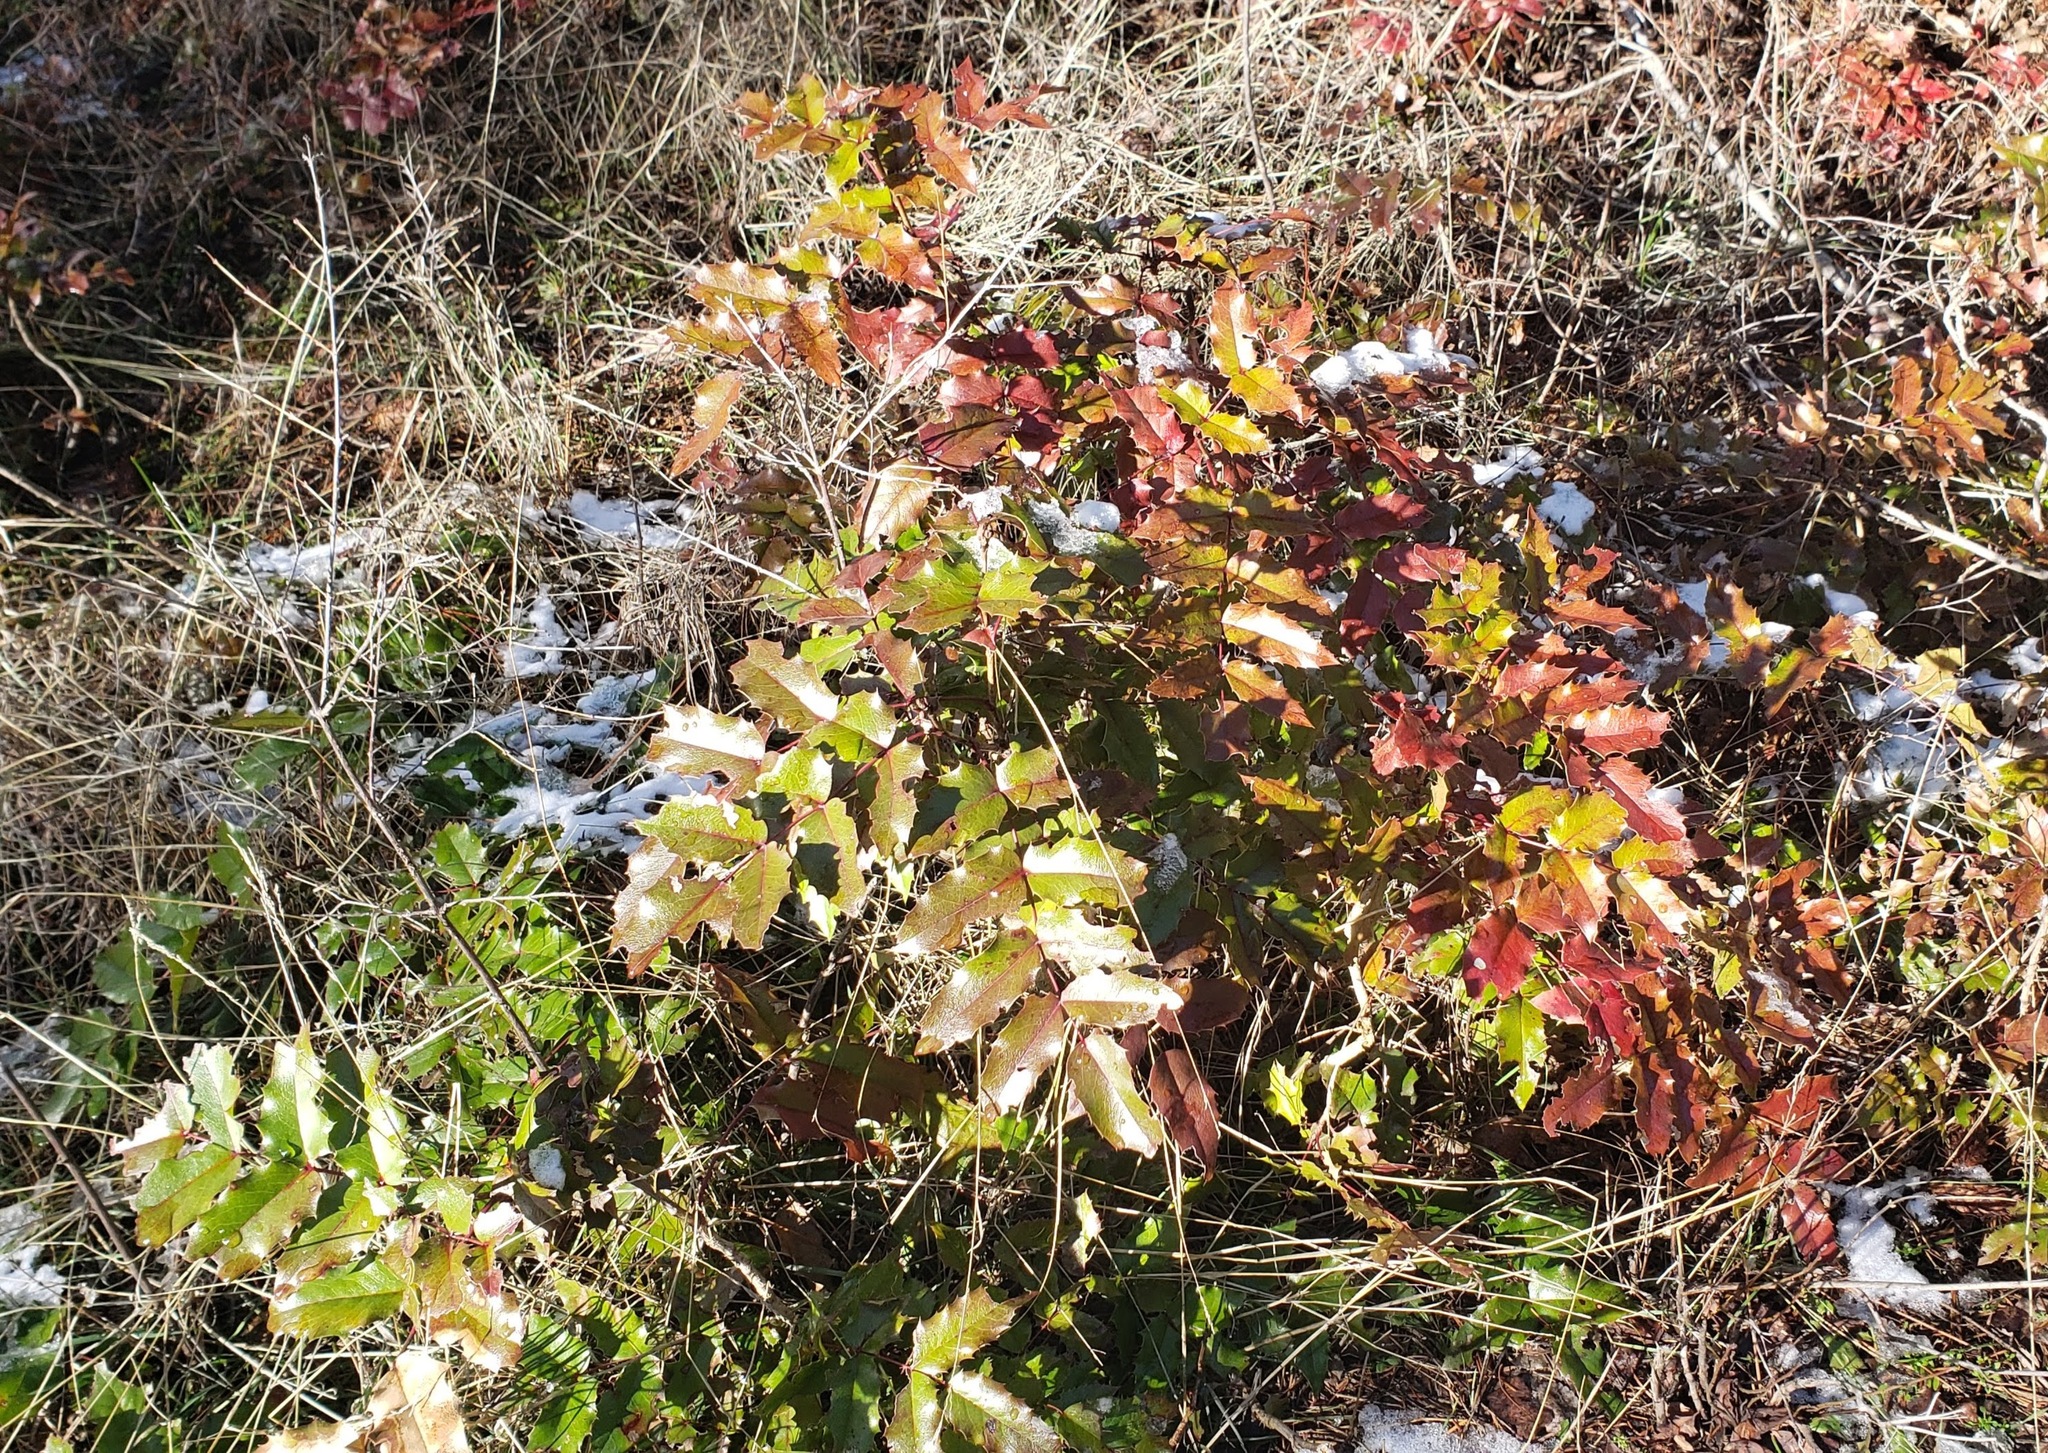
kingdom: Plantae
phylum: Tracheophyta
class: Magnoliopsida
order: Ranunculales
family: Berberidaceae
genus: Mahonia
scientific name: Mahonia aquifolium
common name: Oregon-grape
